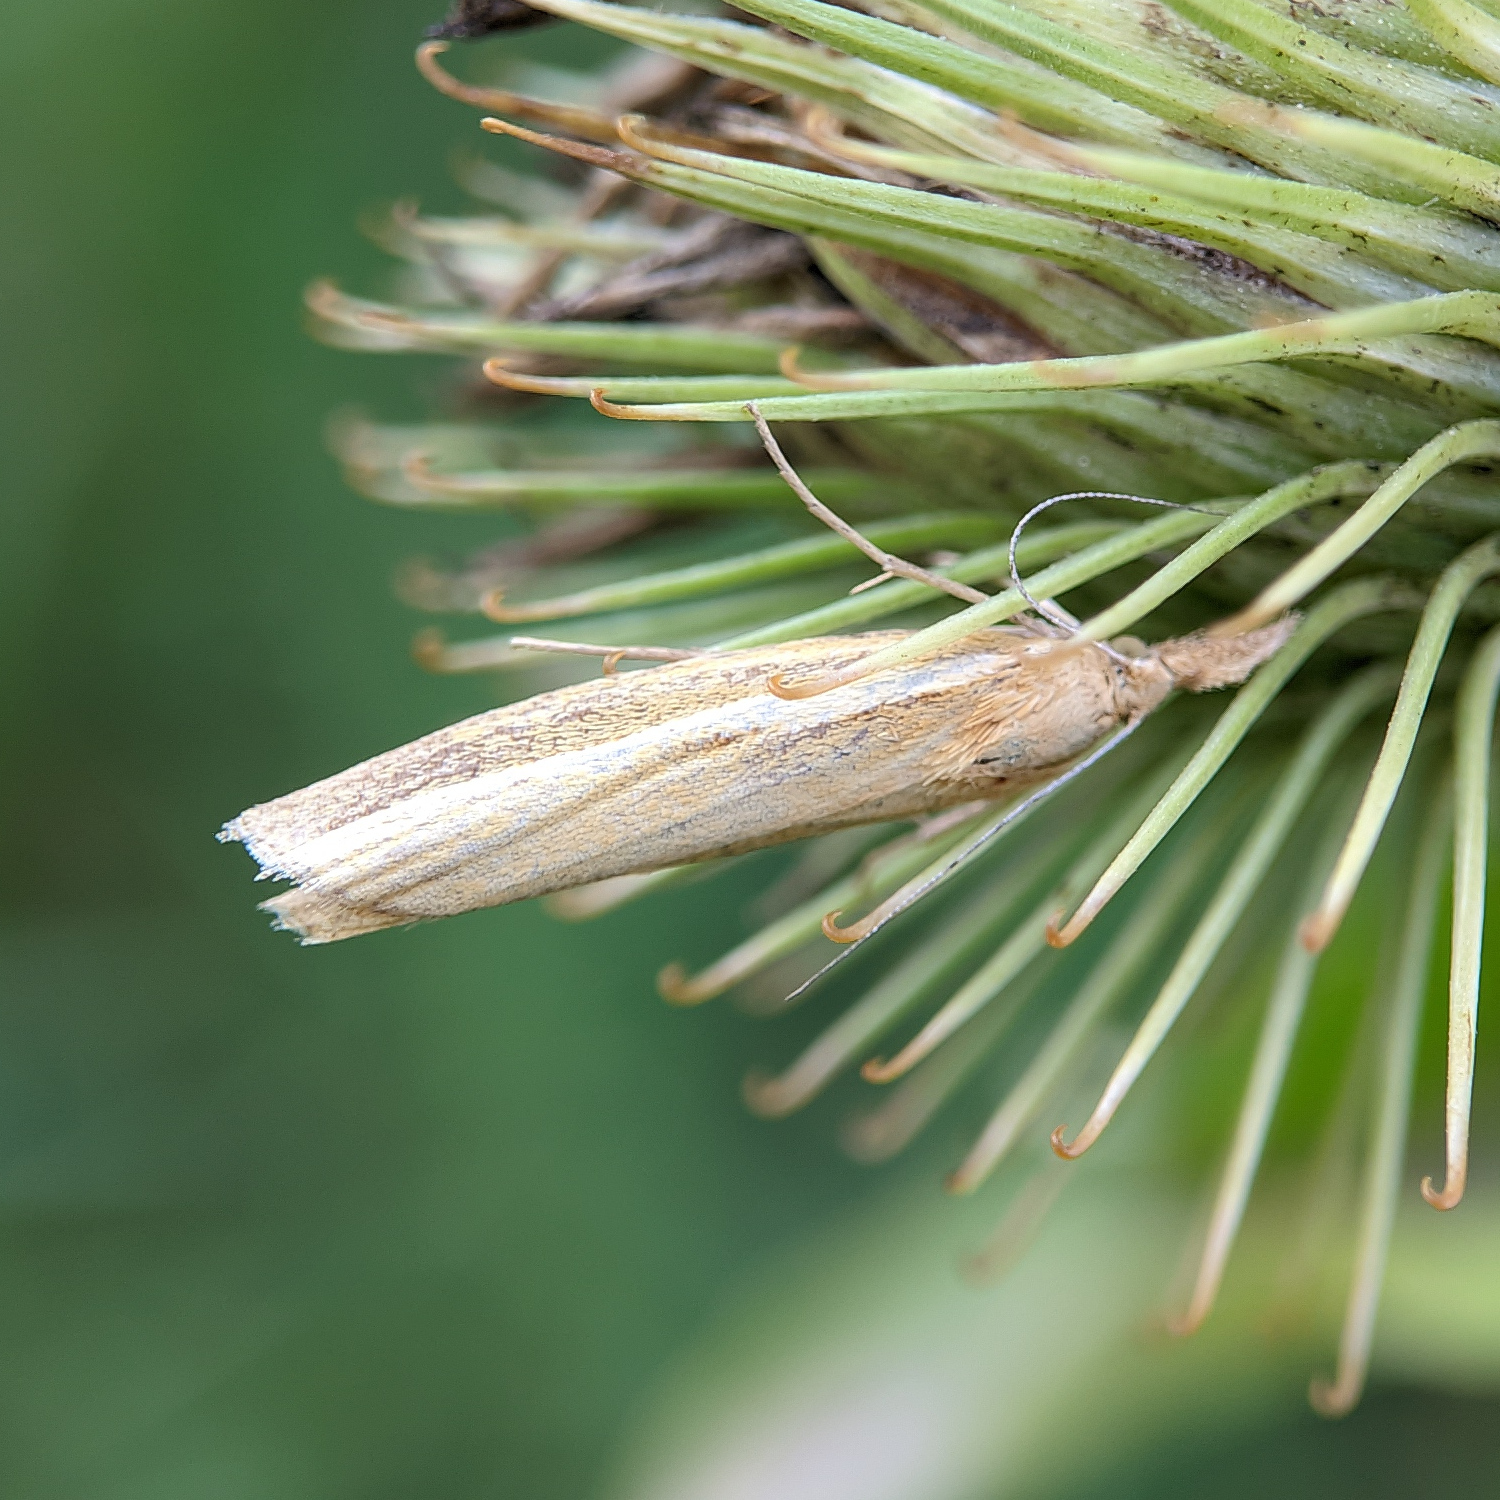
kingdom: Animalia
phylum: Arthropoda
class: Insecta
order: Lepidoptera
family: Crambidae
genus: Agriphila
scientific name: Agriphila tristellus
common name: Common grass-veneer
